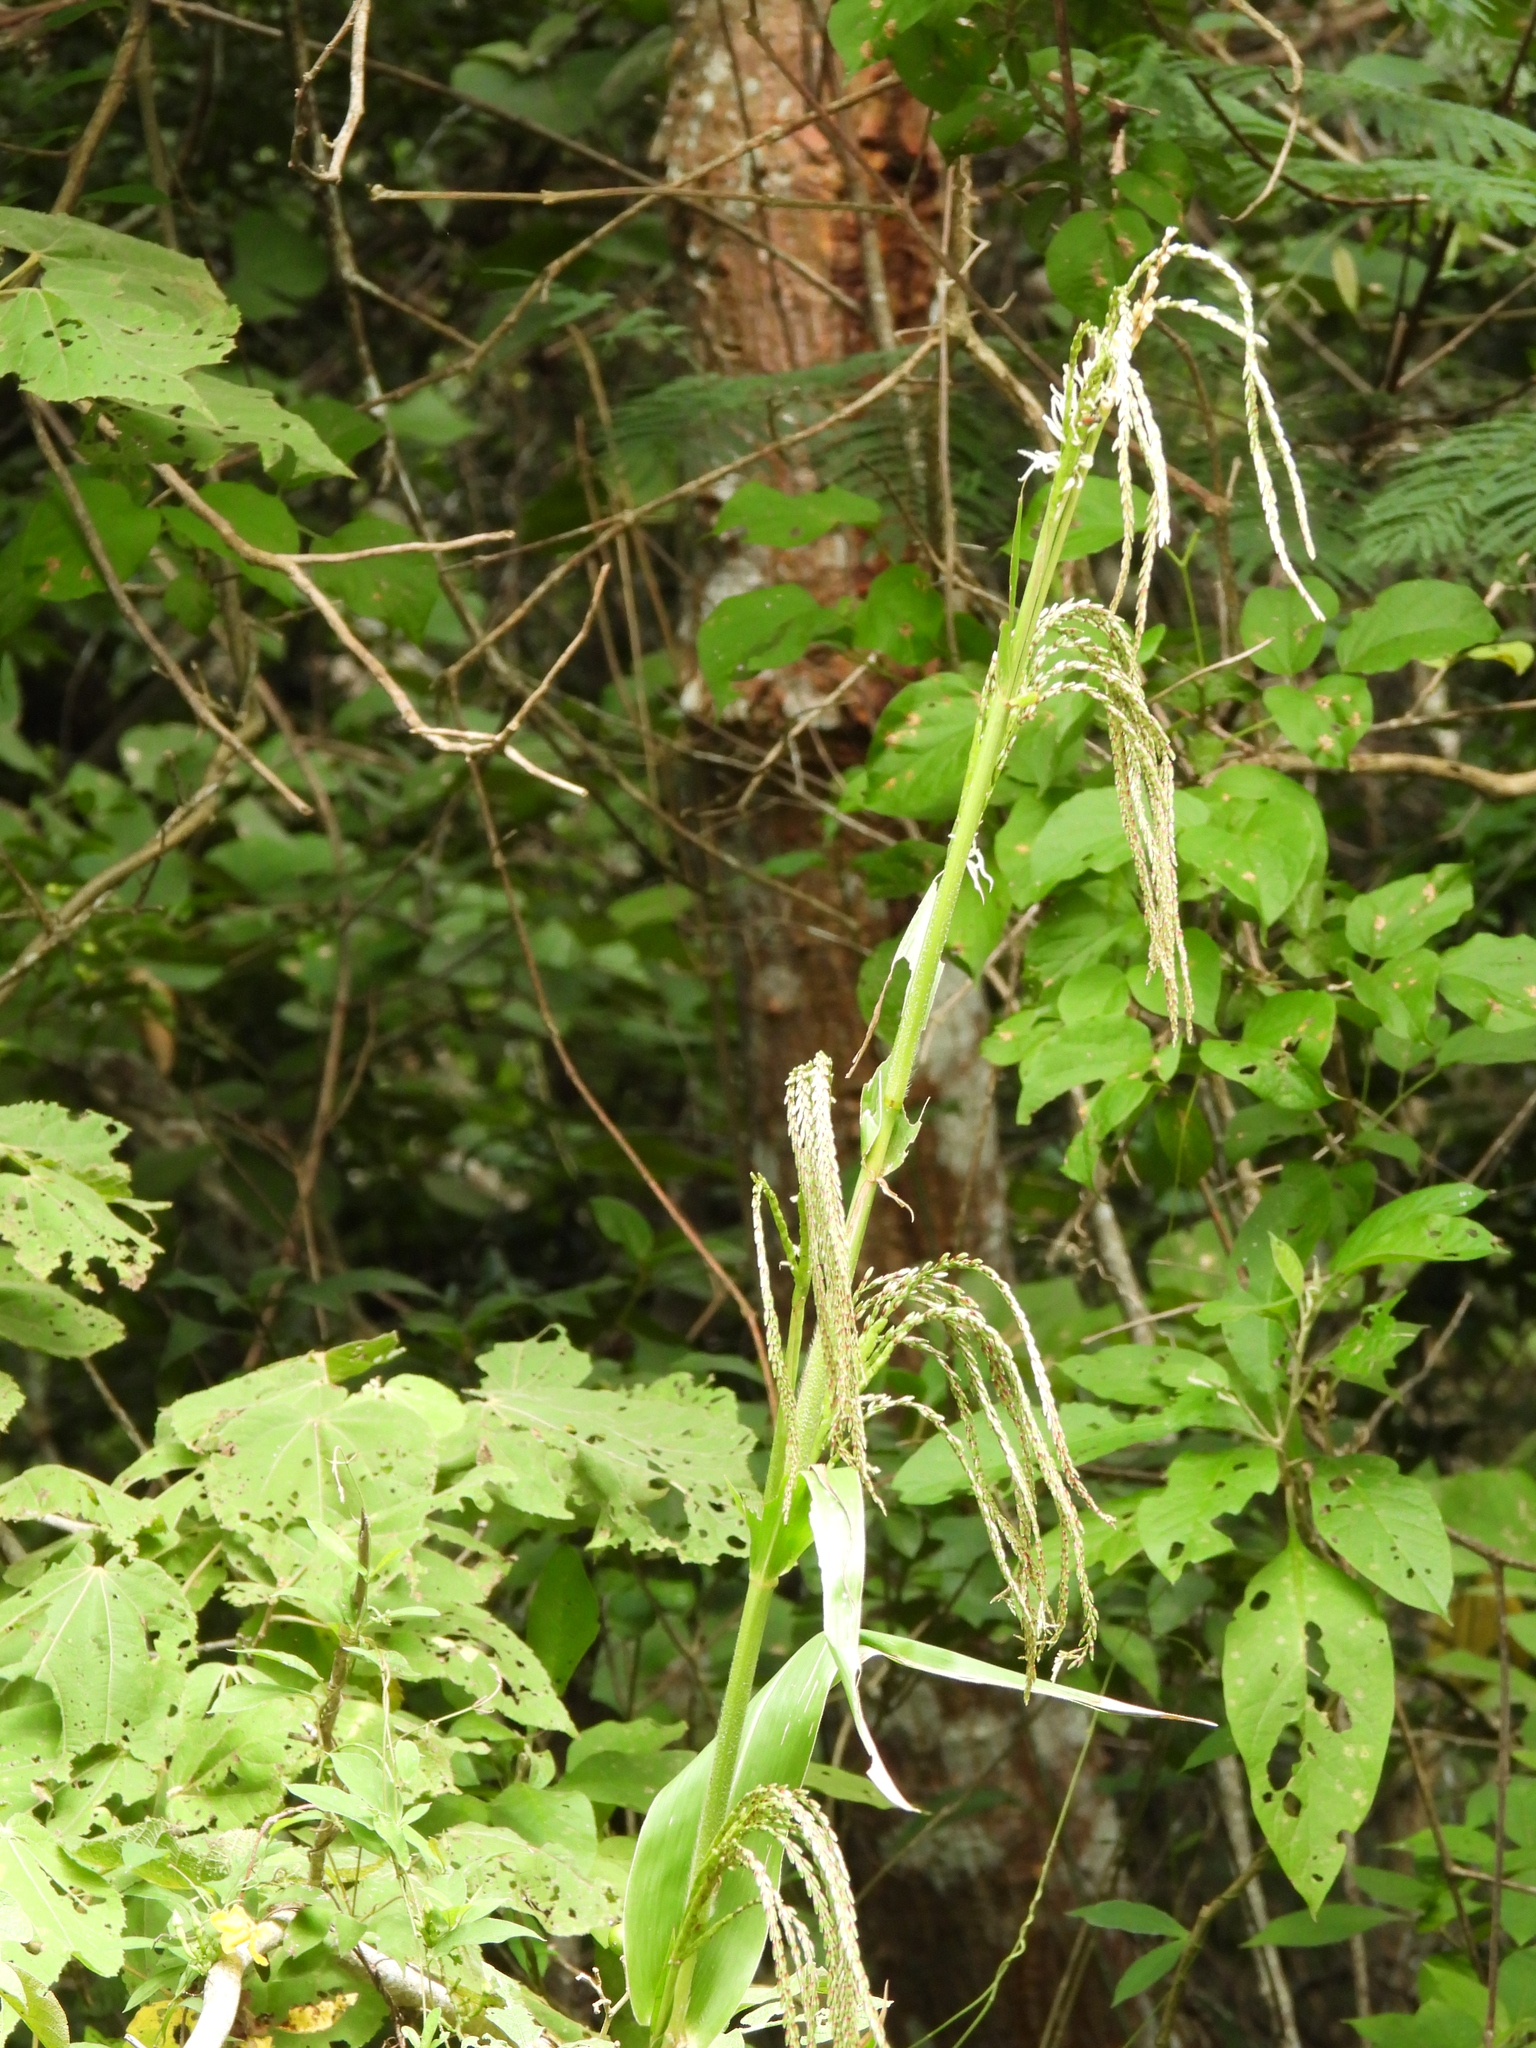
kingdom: Plantae
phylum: Tracheophyta
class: Liliopsida
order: Poales
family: Poaceae
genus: Tripsacum
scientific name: Tripsacum jalapense
